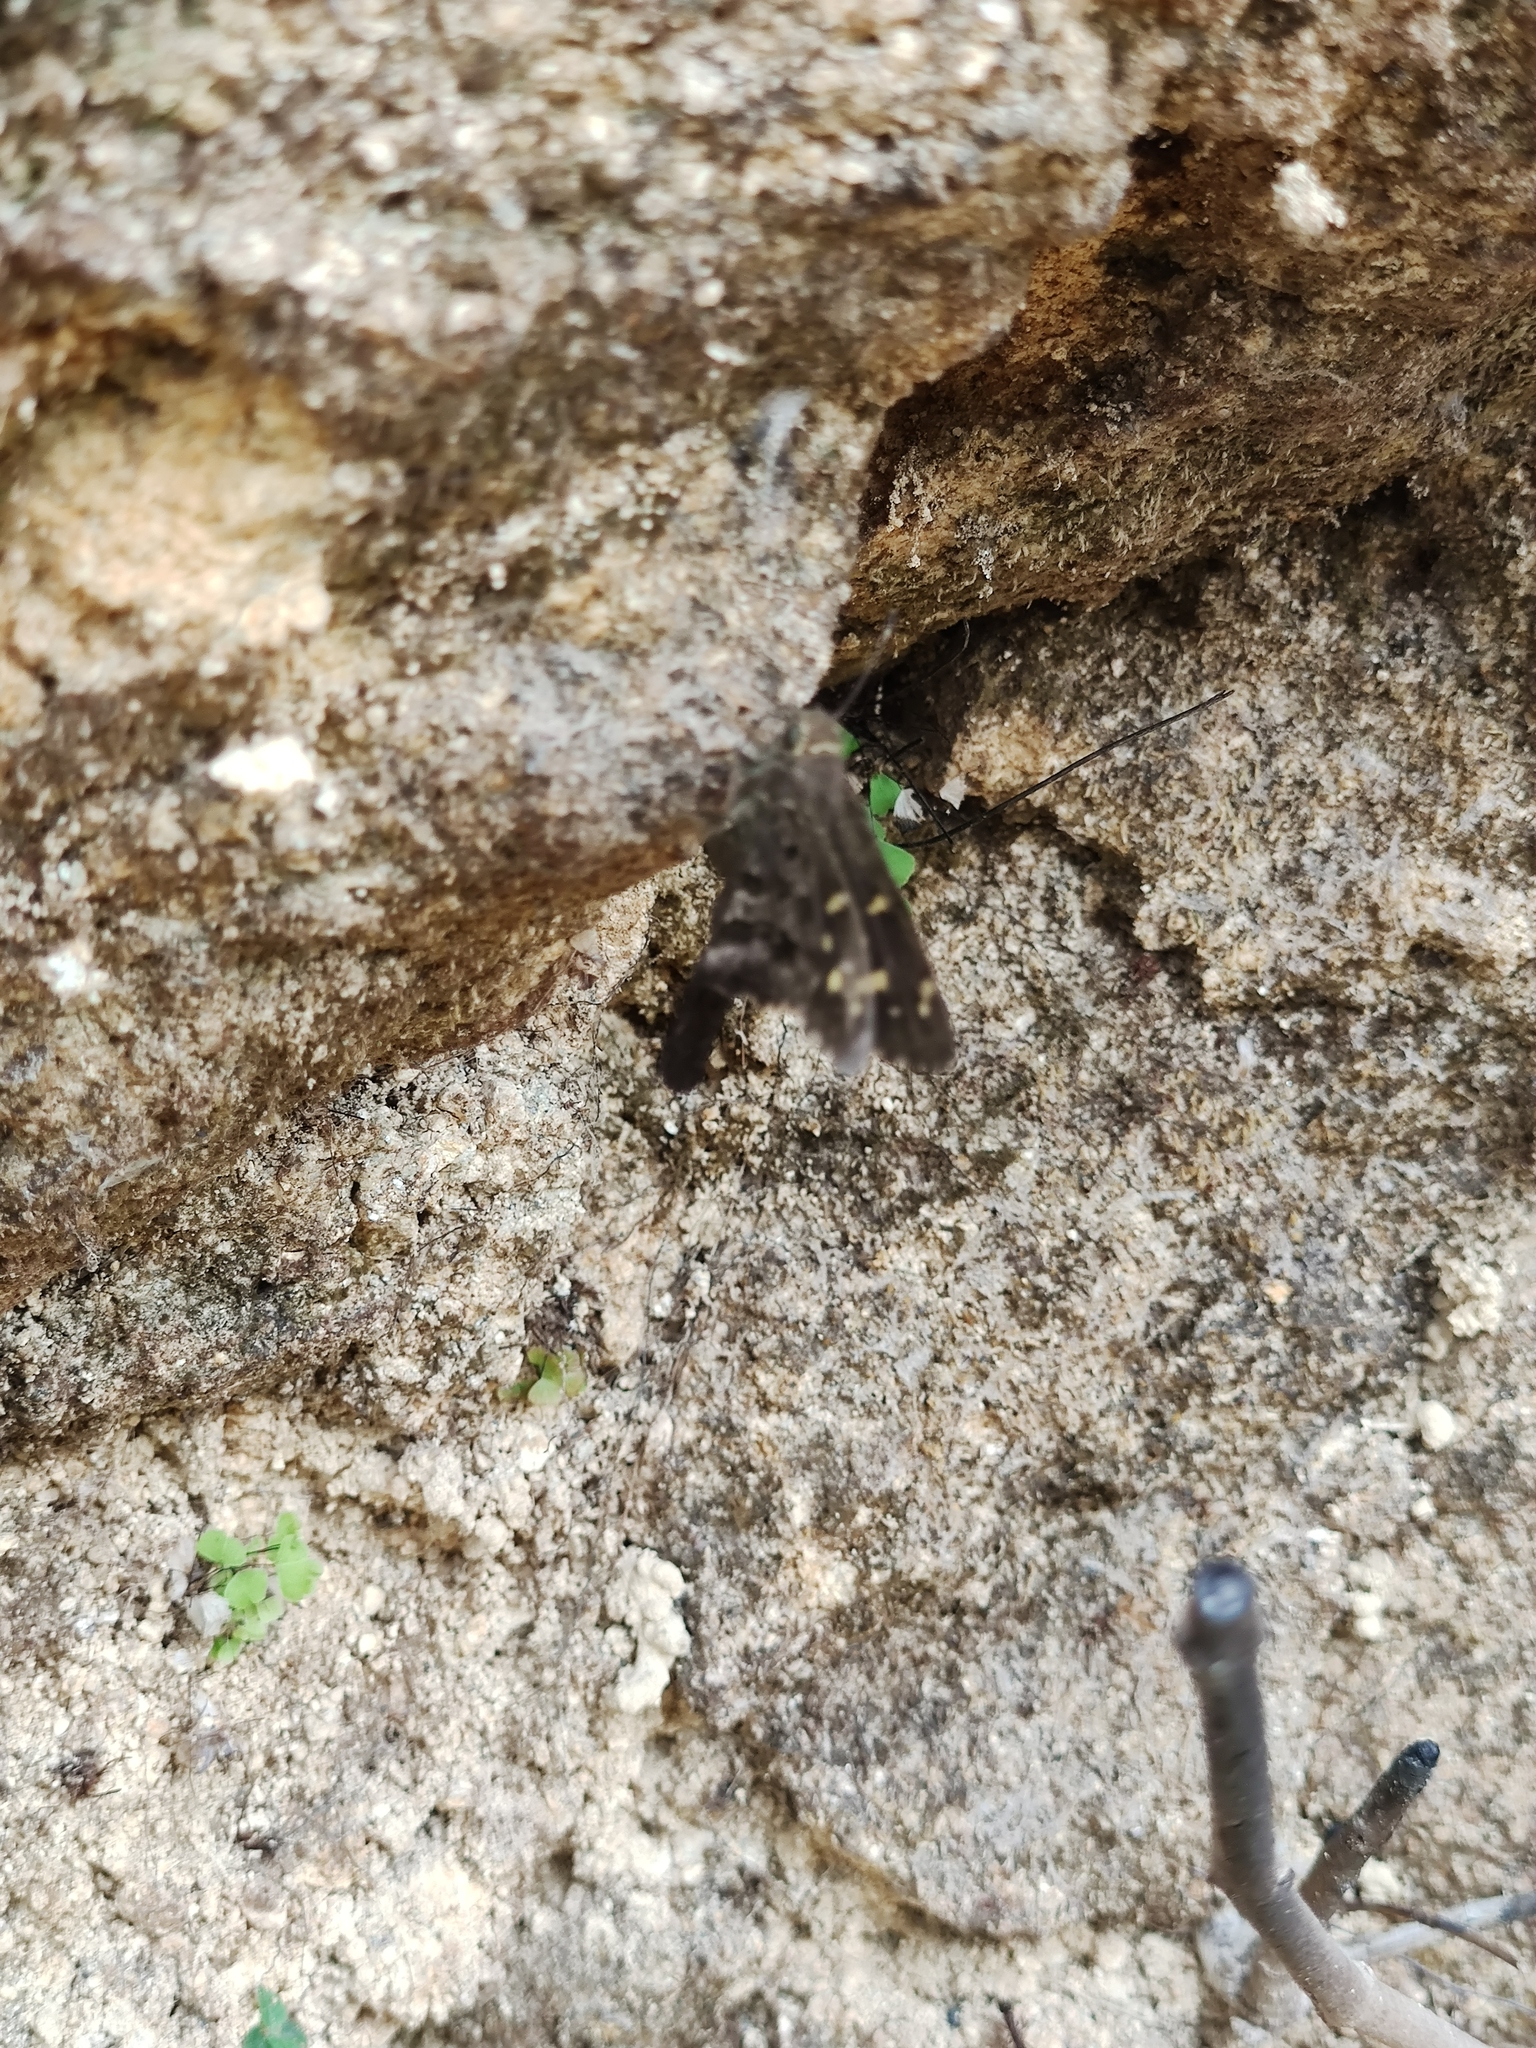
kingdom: Animalia
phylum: Arthropoda
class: Insecta
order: Lepidoptera
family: Hesperiidae
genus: Thorybes
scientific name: Thorybes
